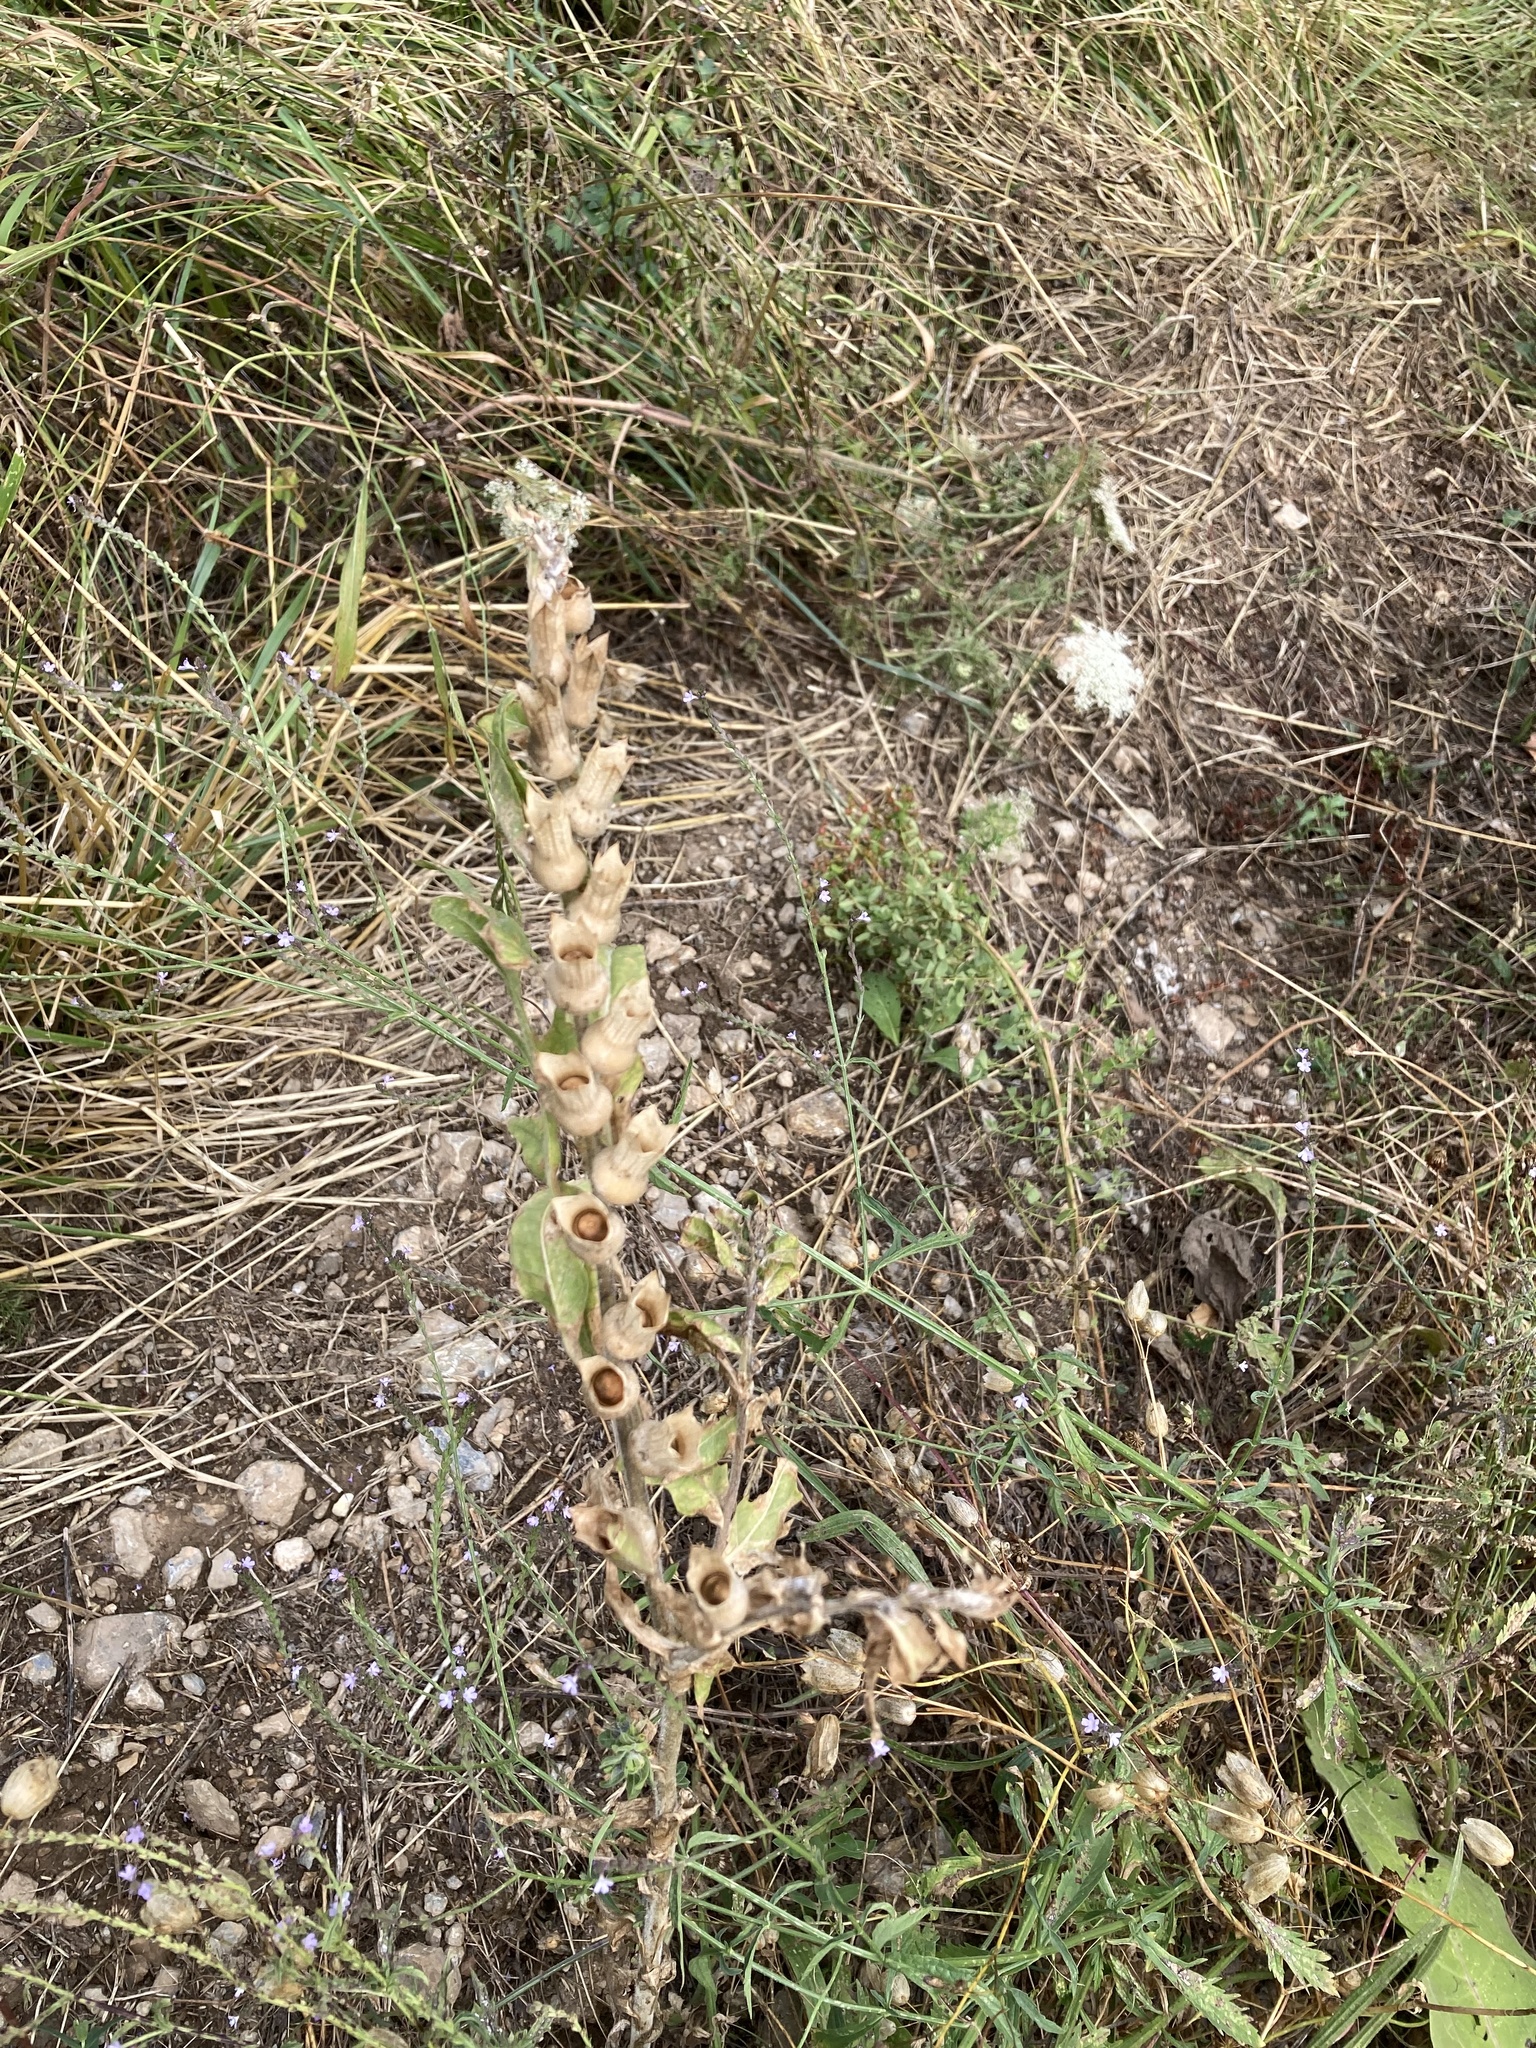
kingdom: Plantae
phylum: Tracheophyta
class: Magnoliopsida
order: Solanales
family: Solanaceae
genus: Hyoscyamus
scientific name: Hyoscyamus niger
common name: Henbane
